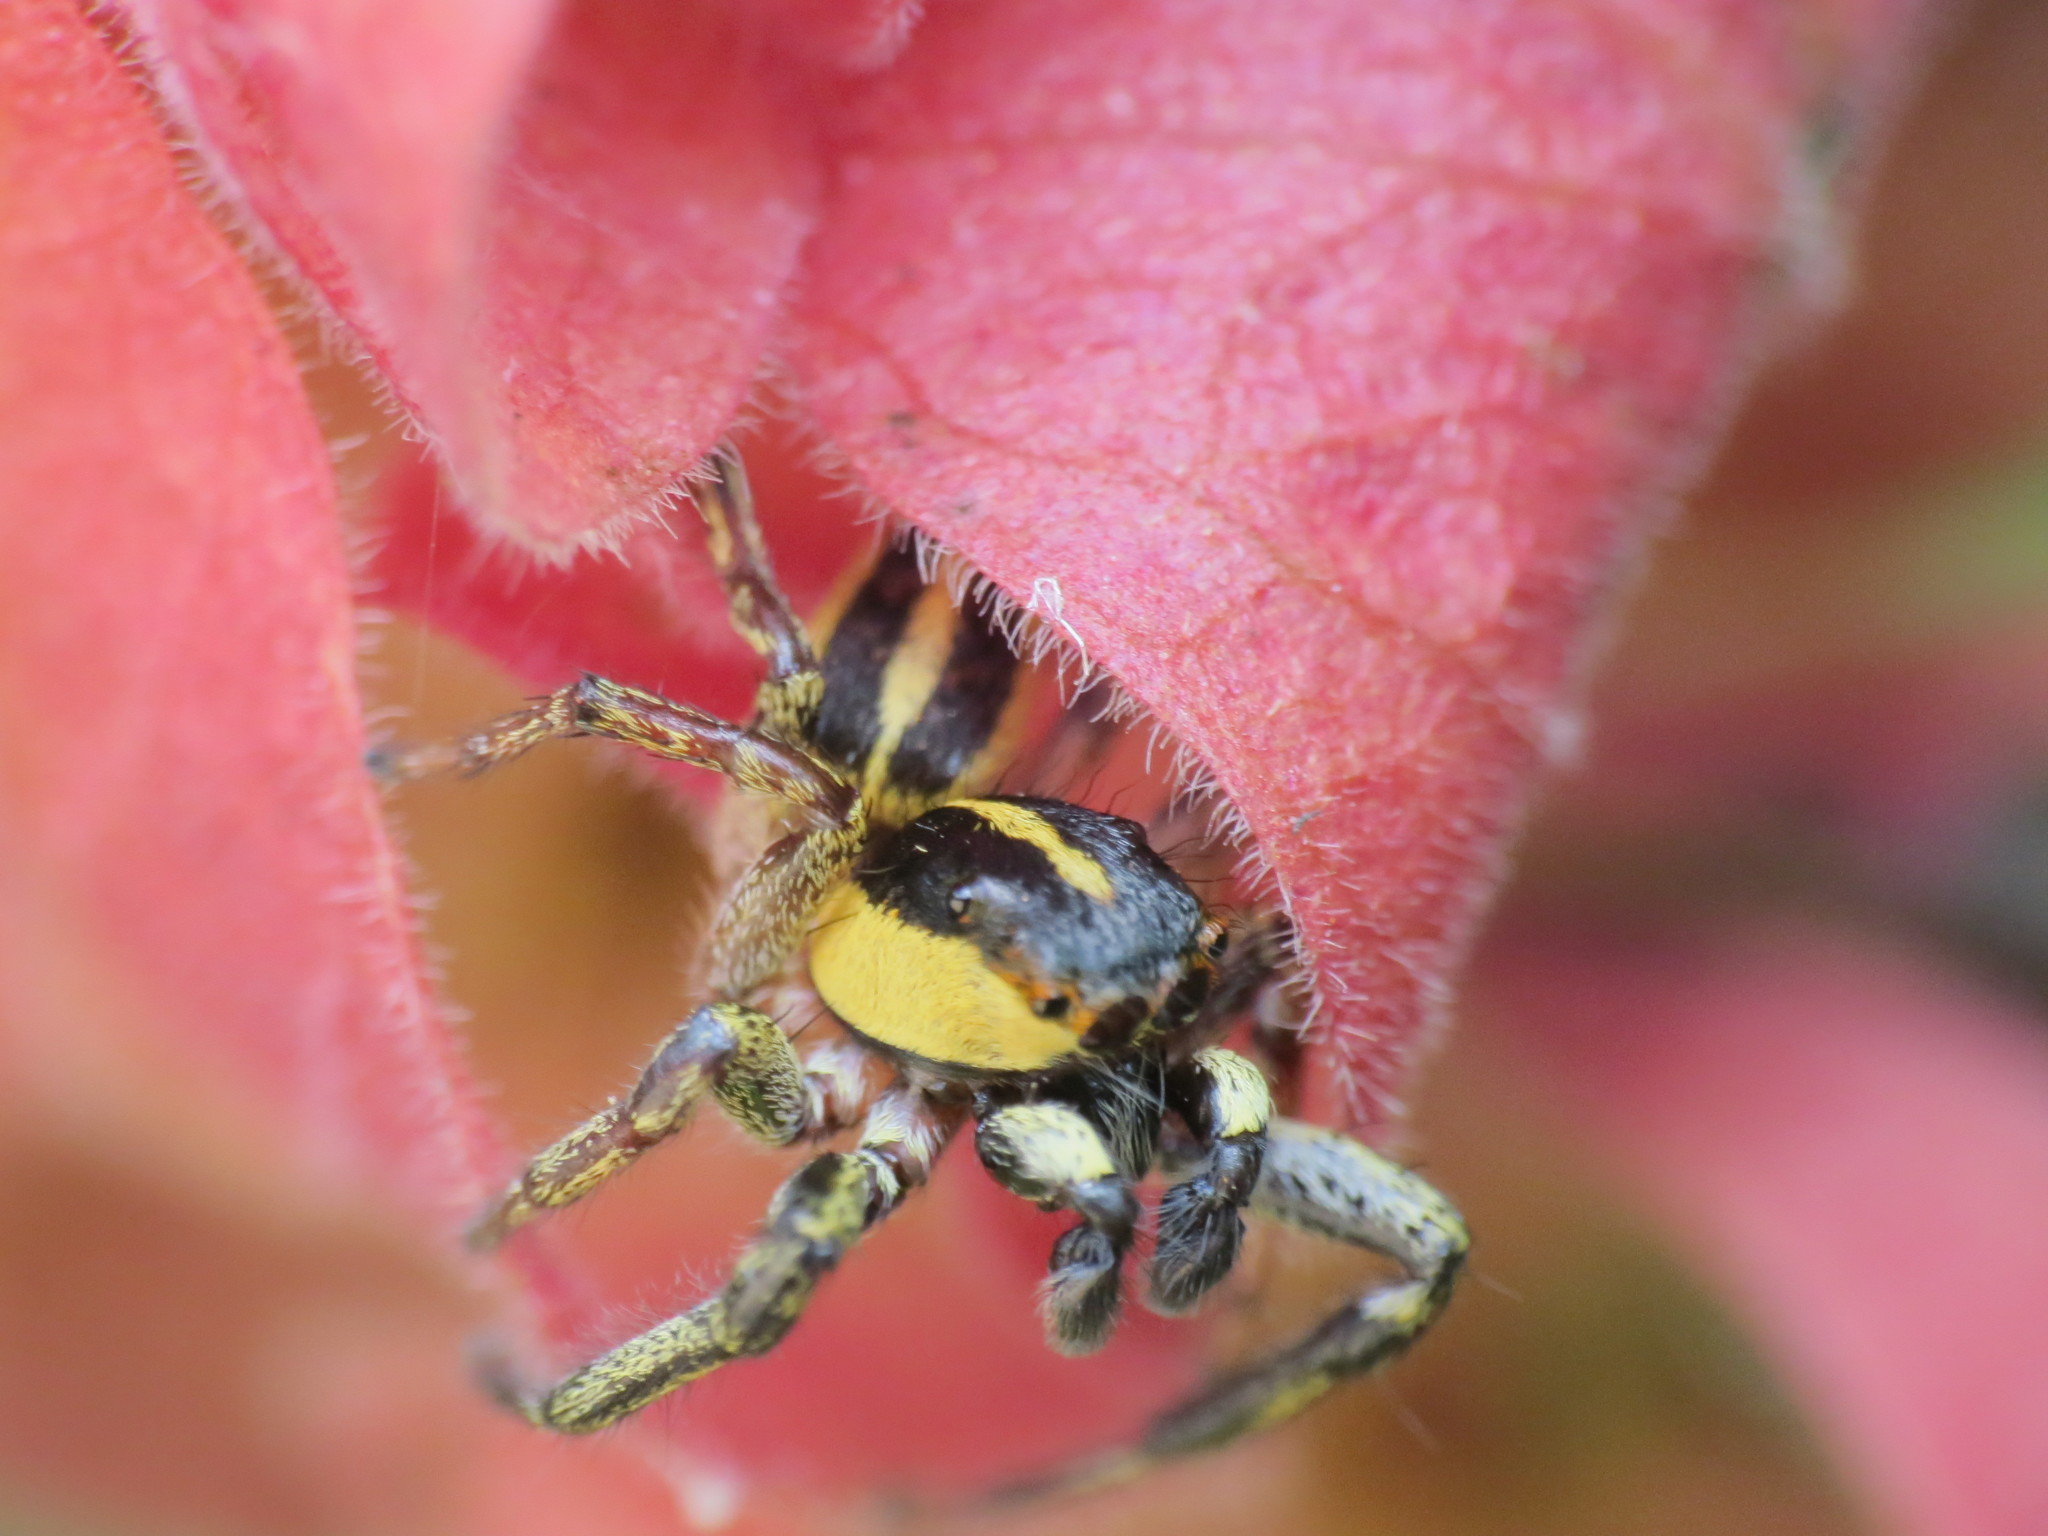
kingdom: Animalia
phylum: Arthropoda
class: Arachnida
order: Araneae
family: Salticidae
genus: Phiale
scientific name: Phiale tristis
